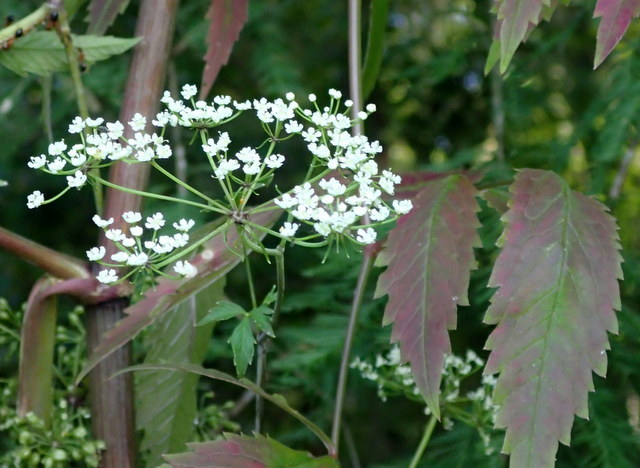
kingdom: Plantae
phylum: Tracheophyta
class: Magnoliopsida
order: Apiales
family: Apiaceae
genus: Cicuta
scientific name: Cicuta maculata
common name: Spotted cowbane
